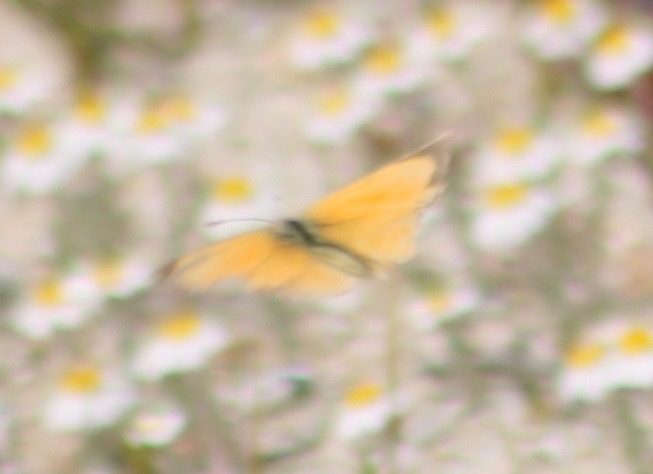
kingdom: Animalia
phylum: Arthropoda
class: Insecta
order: Lepidoptera
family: Pieridae
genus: Abaeis
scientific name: Abaeis nicippe
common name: Sleepy orange
